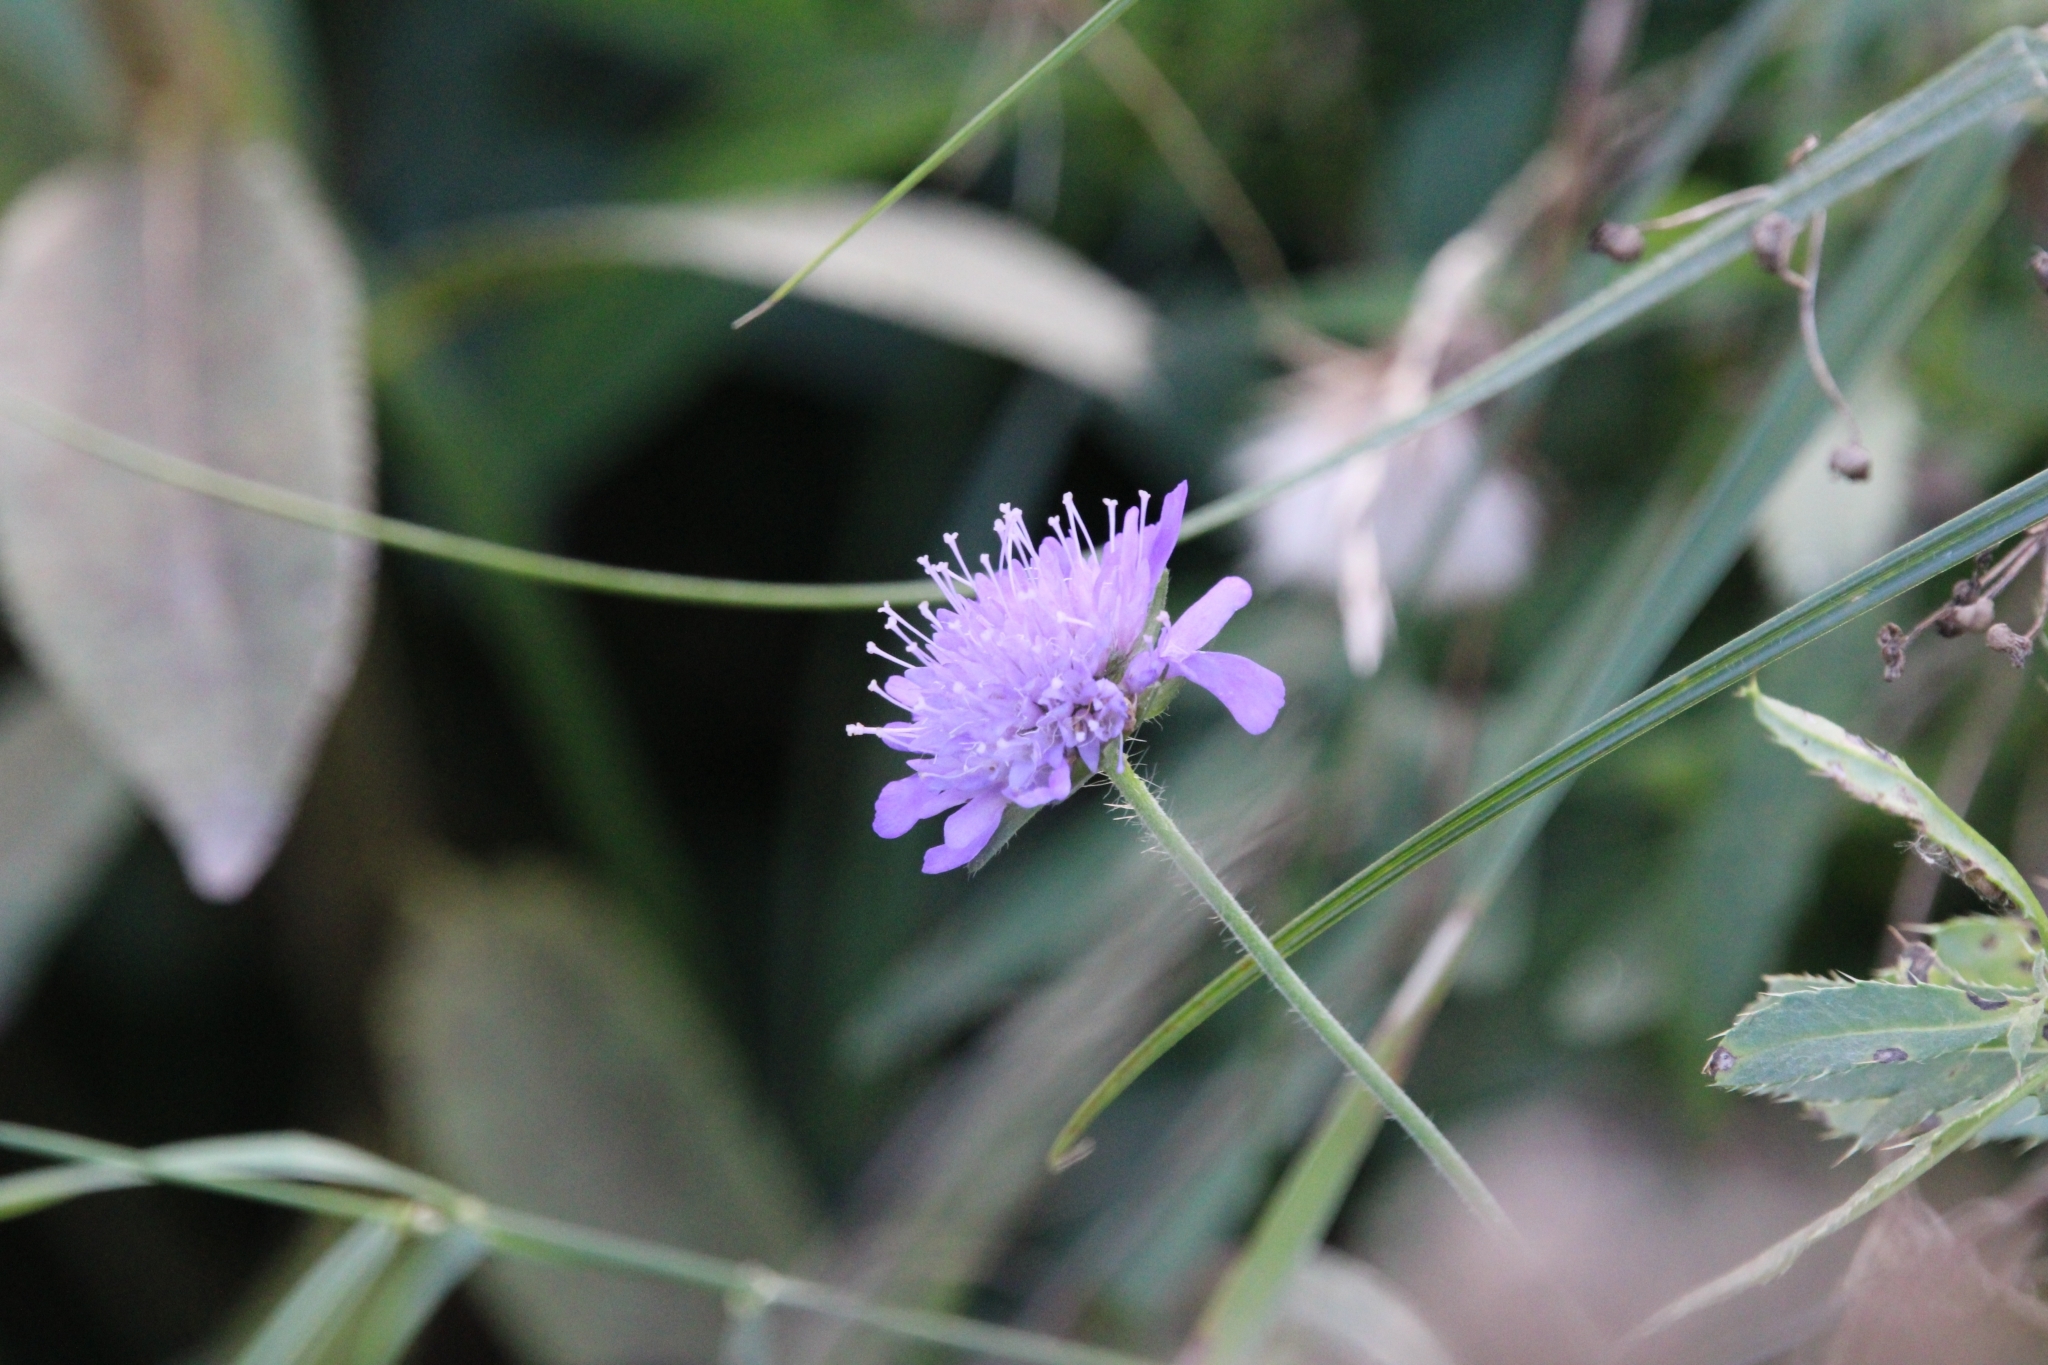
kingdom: Plantae
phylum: Tracheophyta
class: Magnoliopsida
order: Dipsacales
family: Caprifoliaceae
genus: Knautia
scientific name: Knautia arvensis
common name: Field scabiosa
